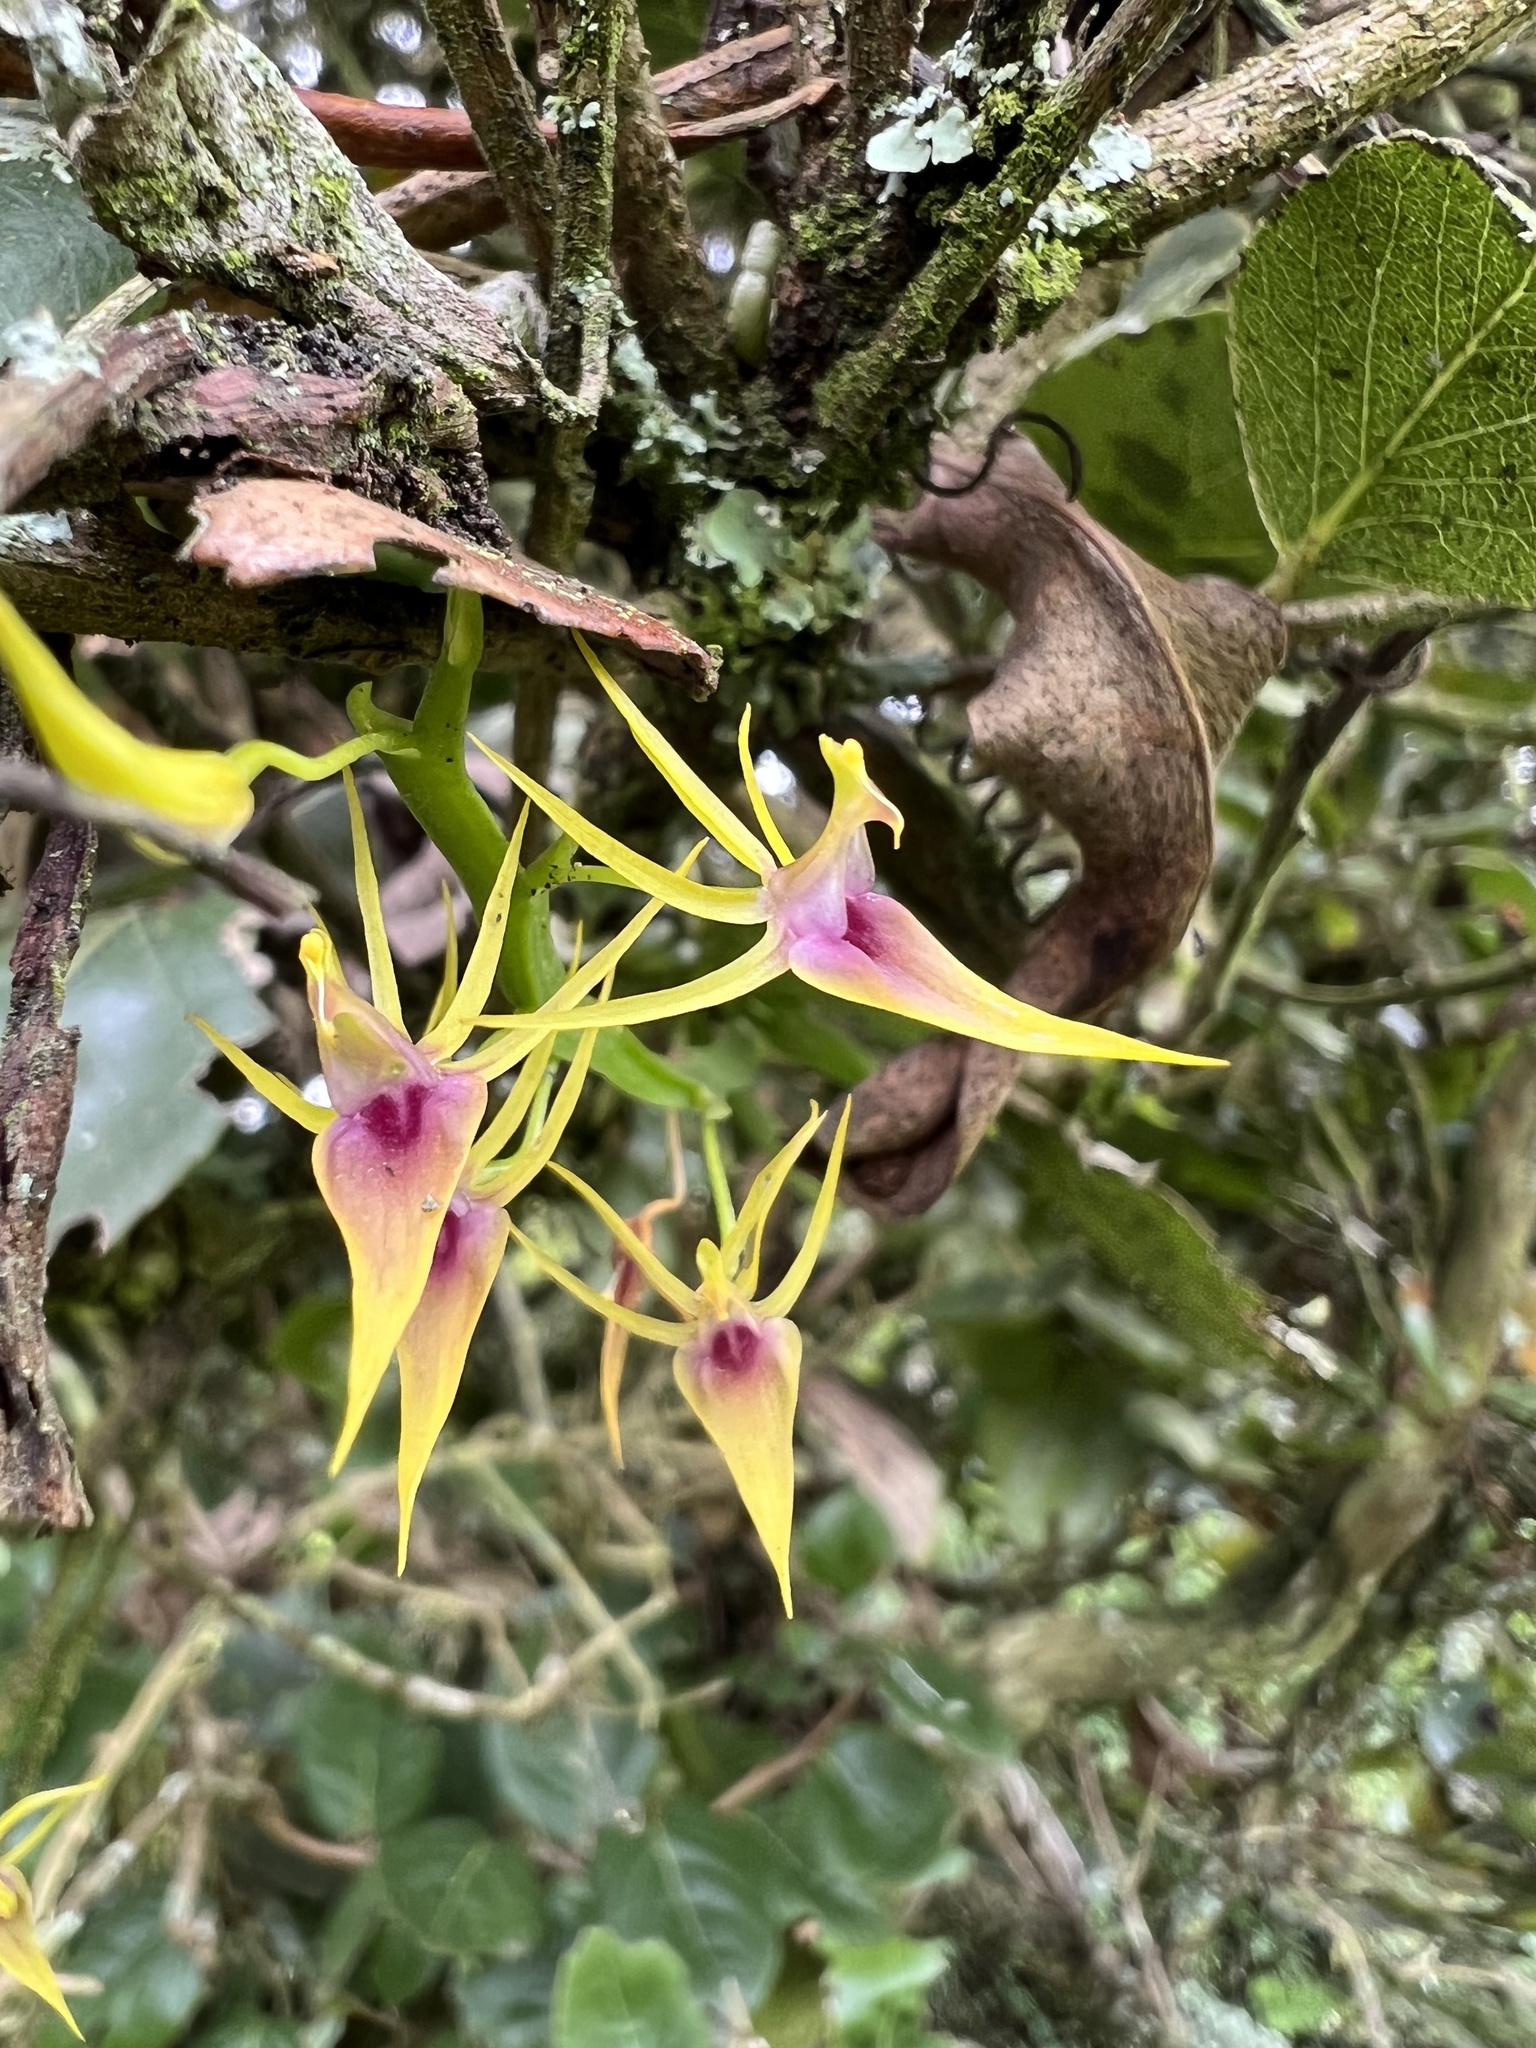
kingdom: Plantae
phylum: Tracheophyta
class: Liliopsida
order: Asparagales
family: Orchidaceae
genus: Hofmeisterella
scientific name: Hofmeisterella eumicroscopica
